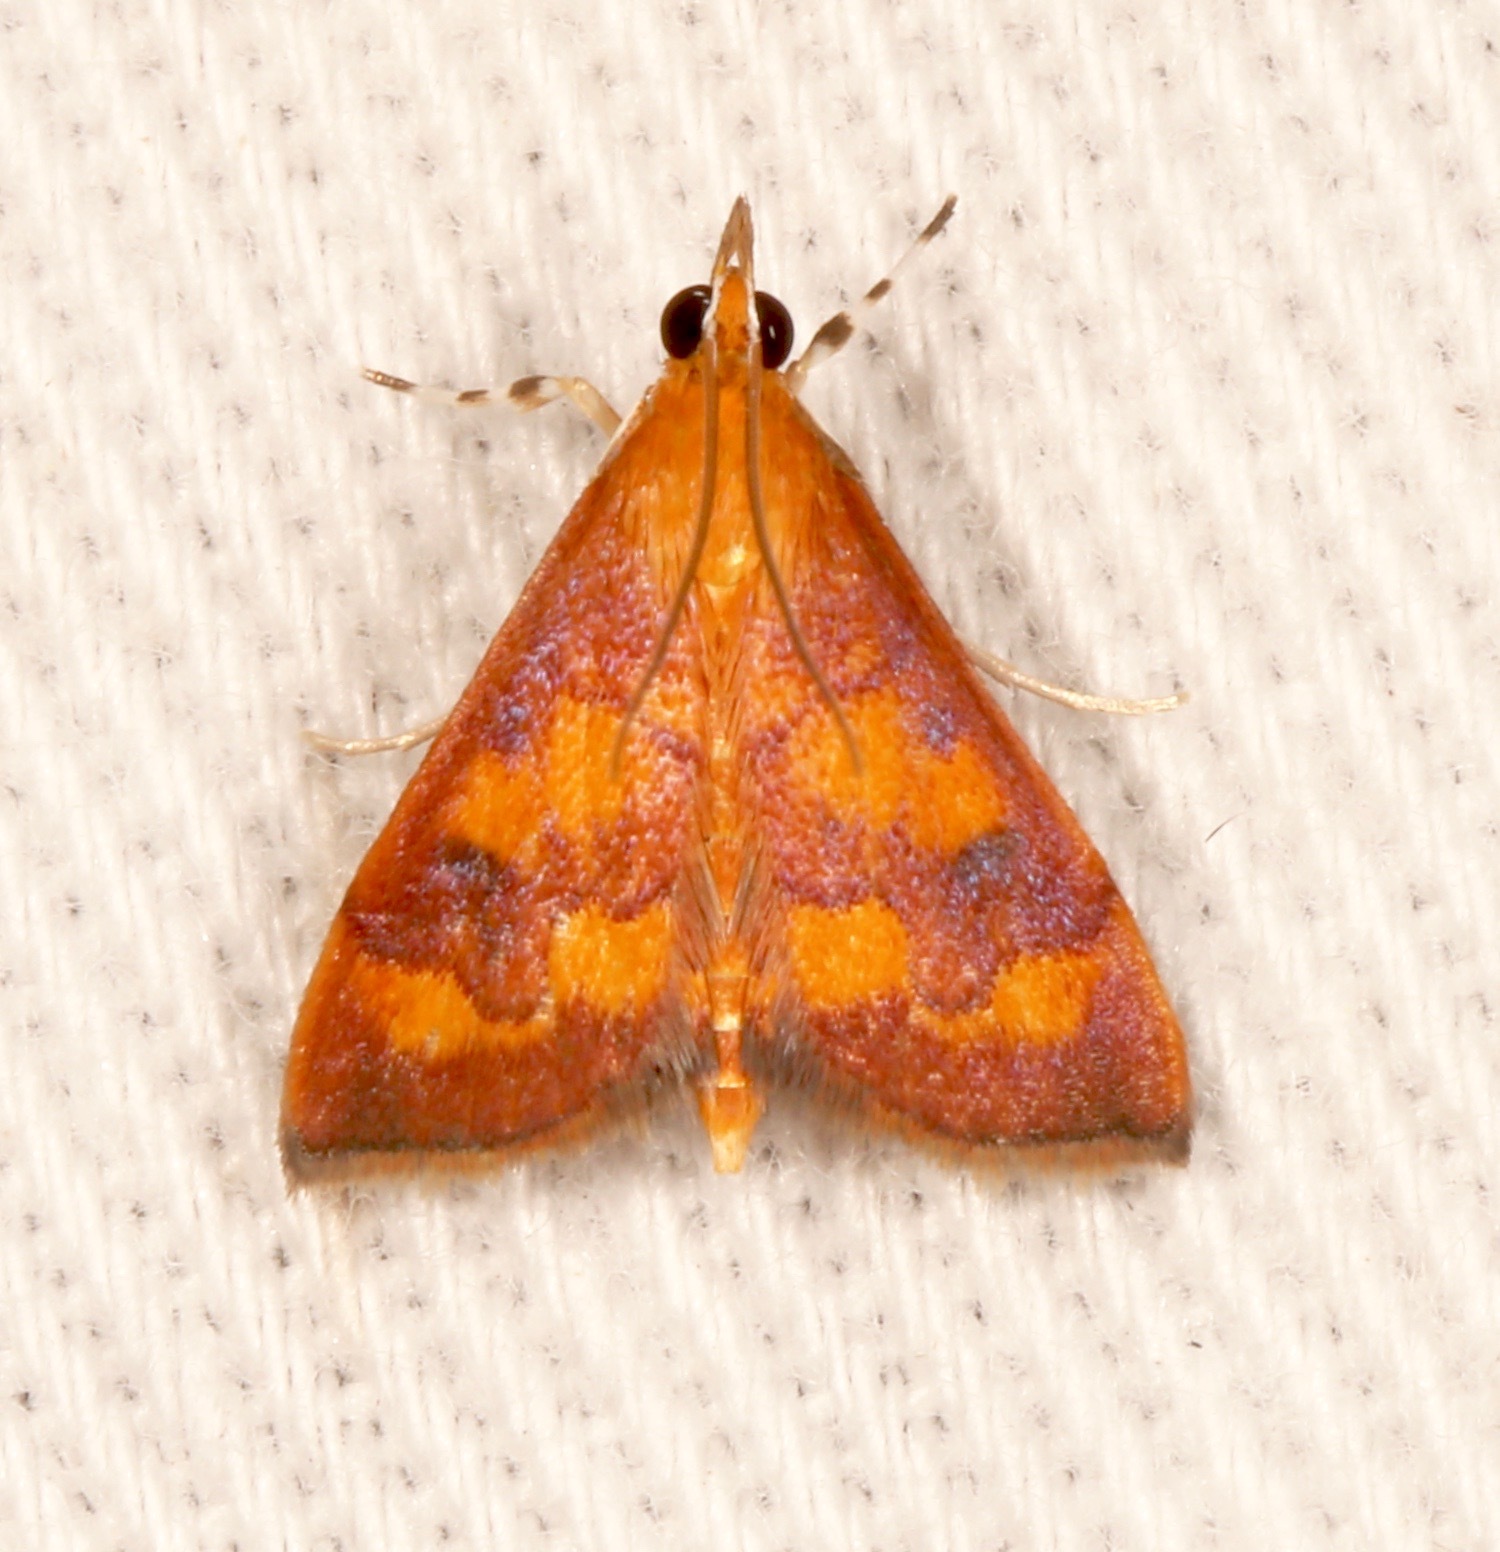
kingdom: Animalia
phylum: Arthropoda
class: Insecta
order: Lepidoptera
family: Crambidae
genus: Pyrausta
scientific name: Pyrausta phoenicealis
